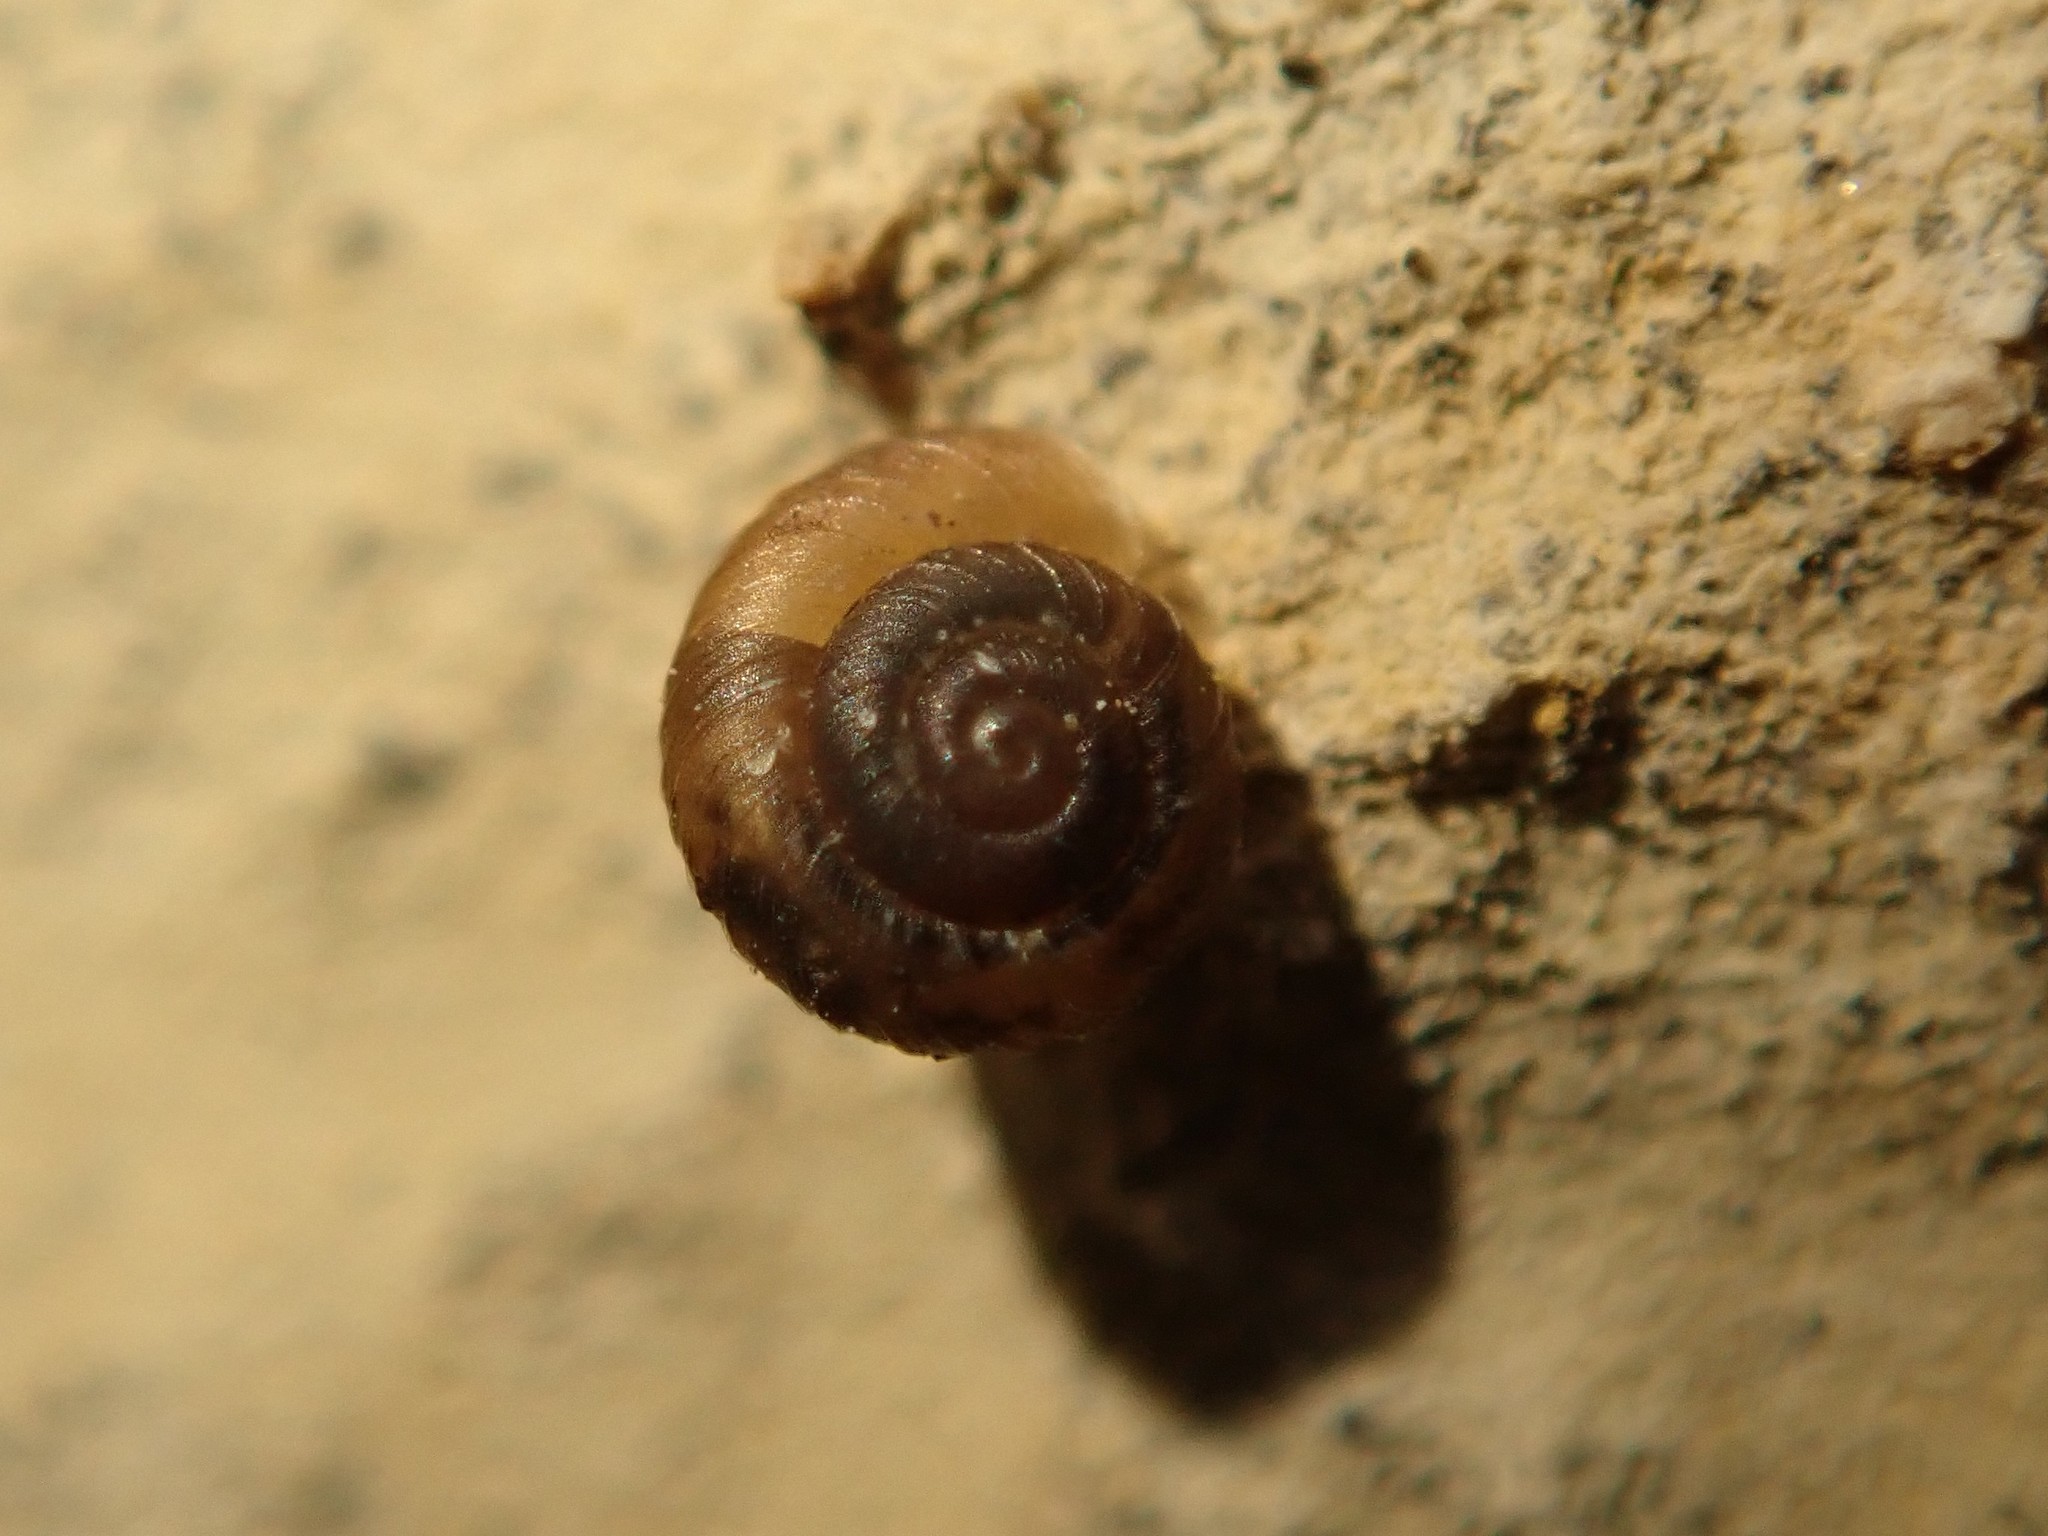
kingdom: Animalia
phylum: Mollusca
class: Gastropoda
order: Stylommatophora
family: Punctidae
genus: Paralaoma
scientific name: Paralaoma servilis
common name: Pinhead spot
